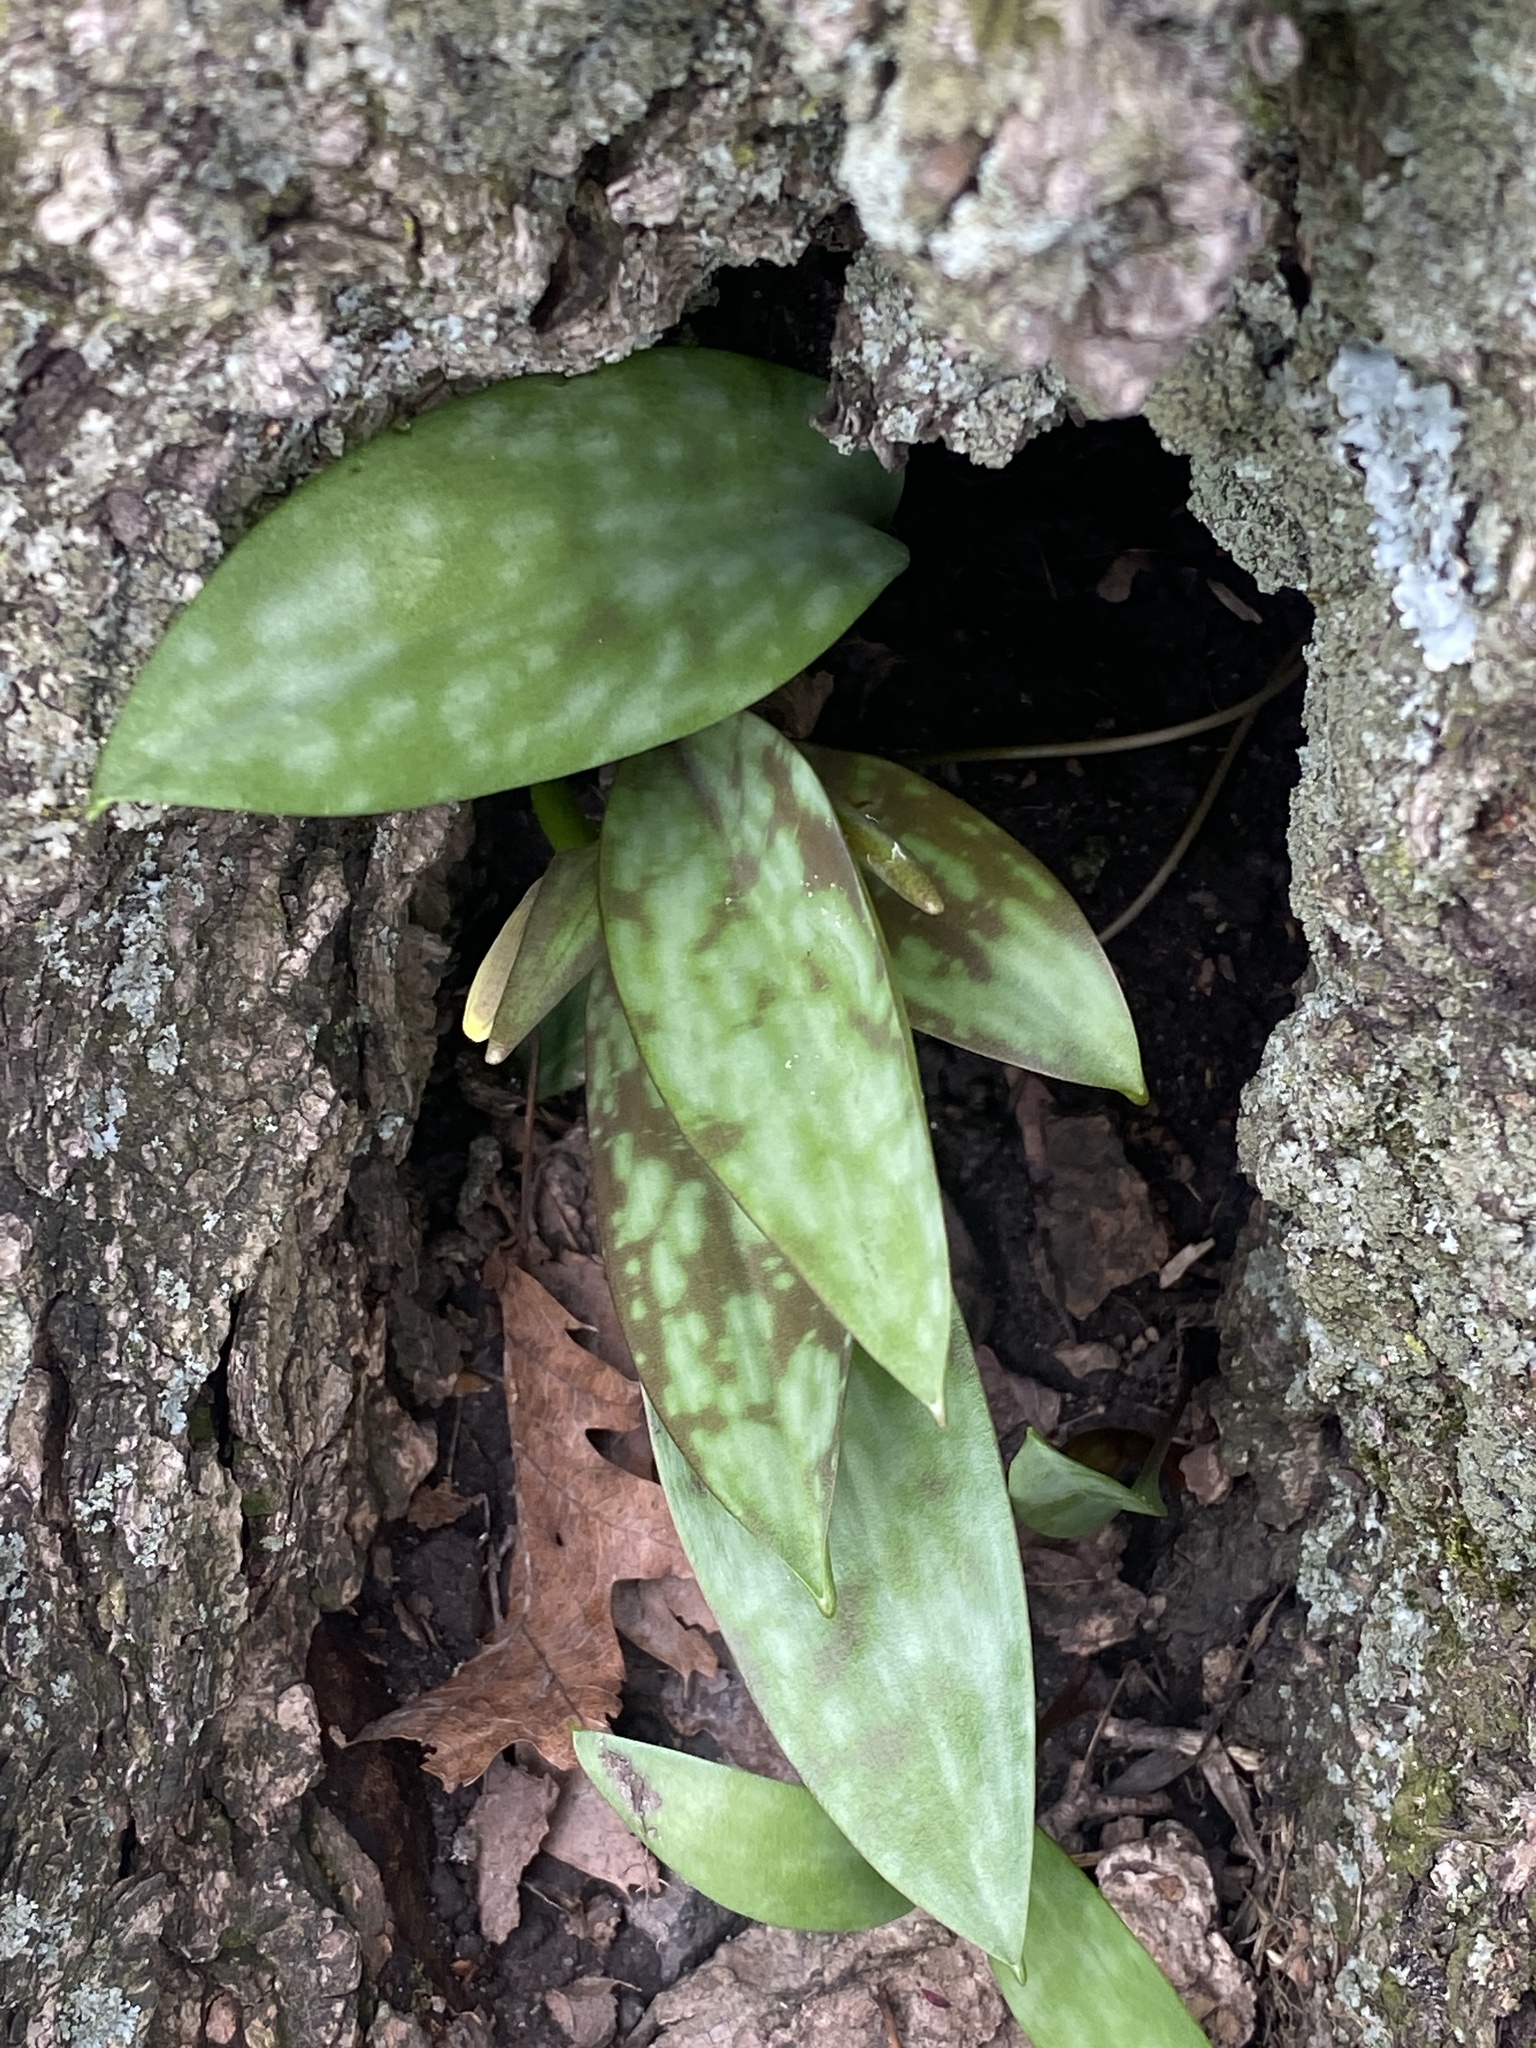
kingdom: Plantae
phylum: Tracheophyta
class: Liliopsida
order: Liliales
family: Liliaceae
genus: Erythronium
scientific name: Erythronium americanum
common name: Yellow adder's-tongue
